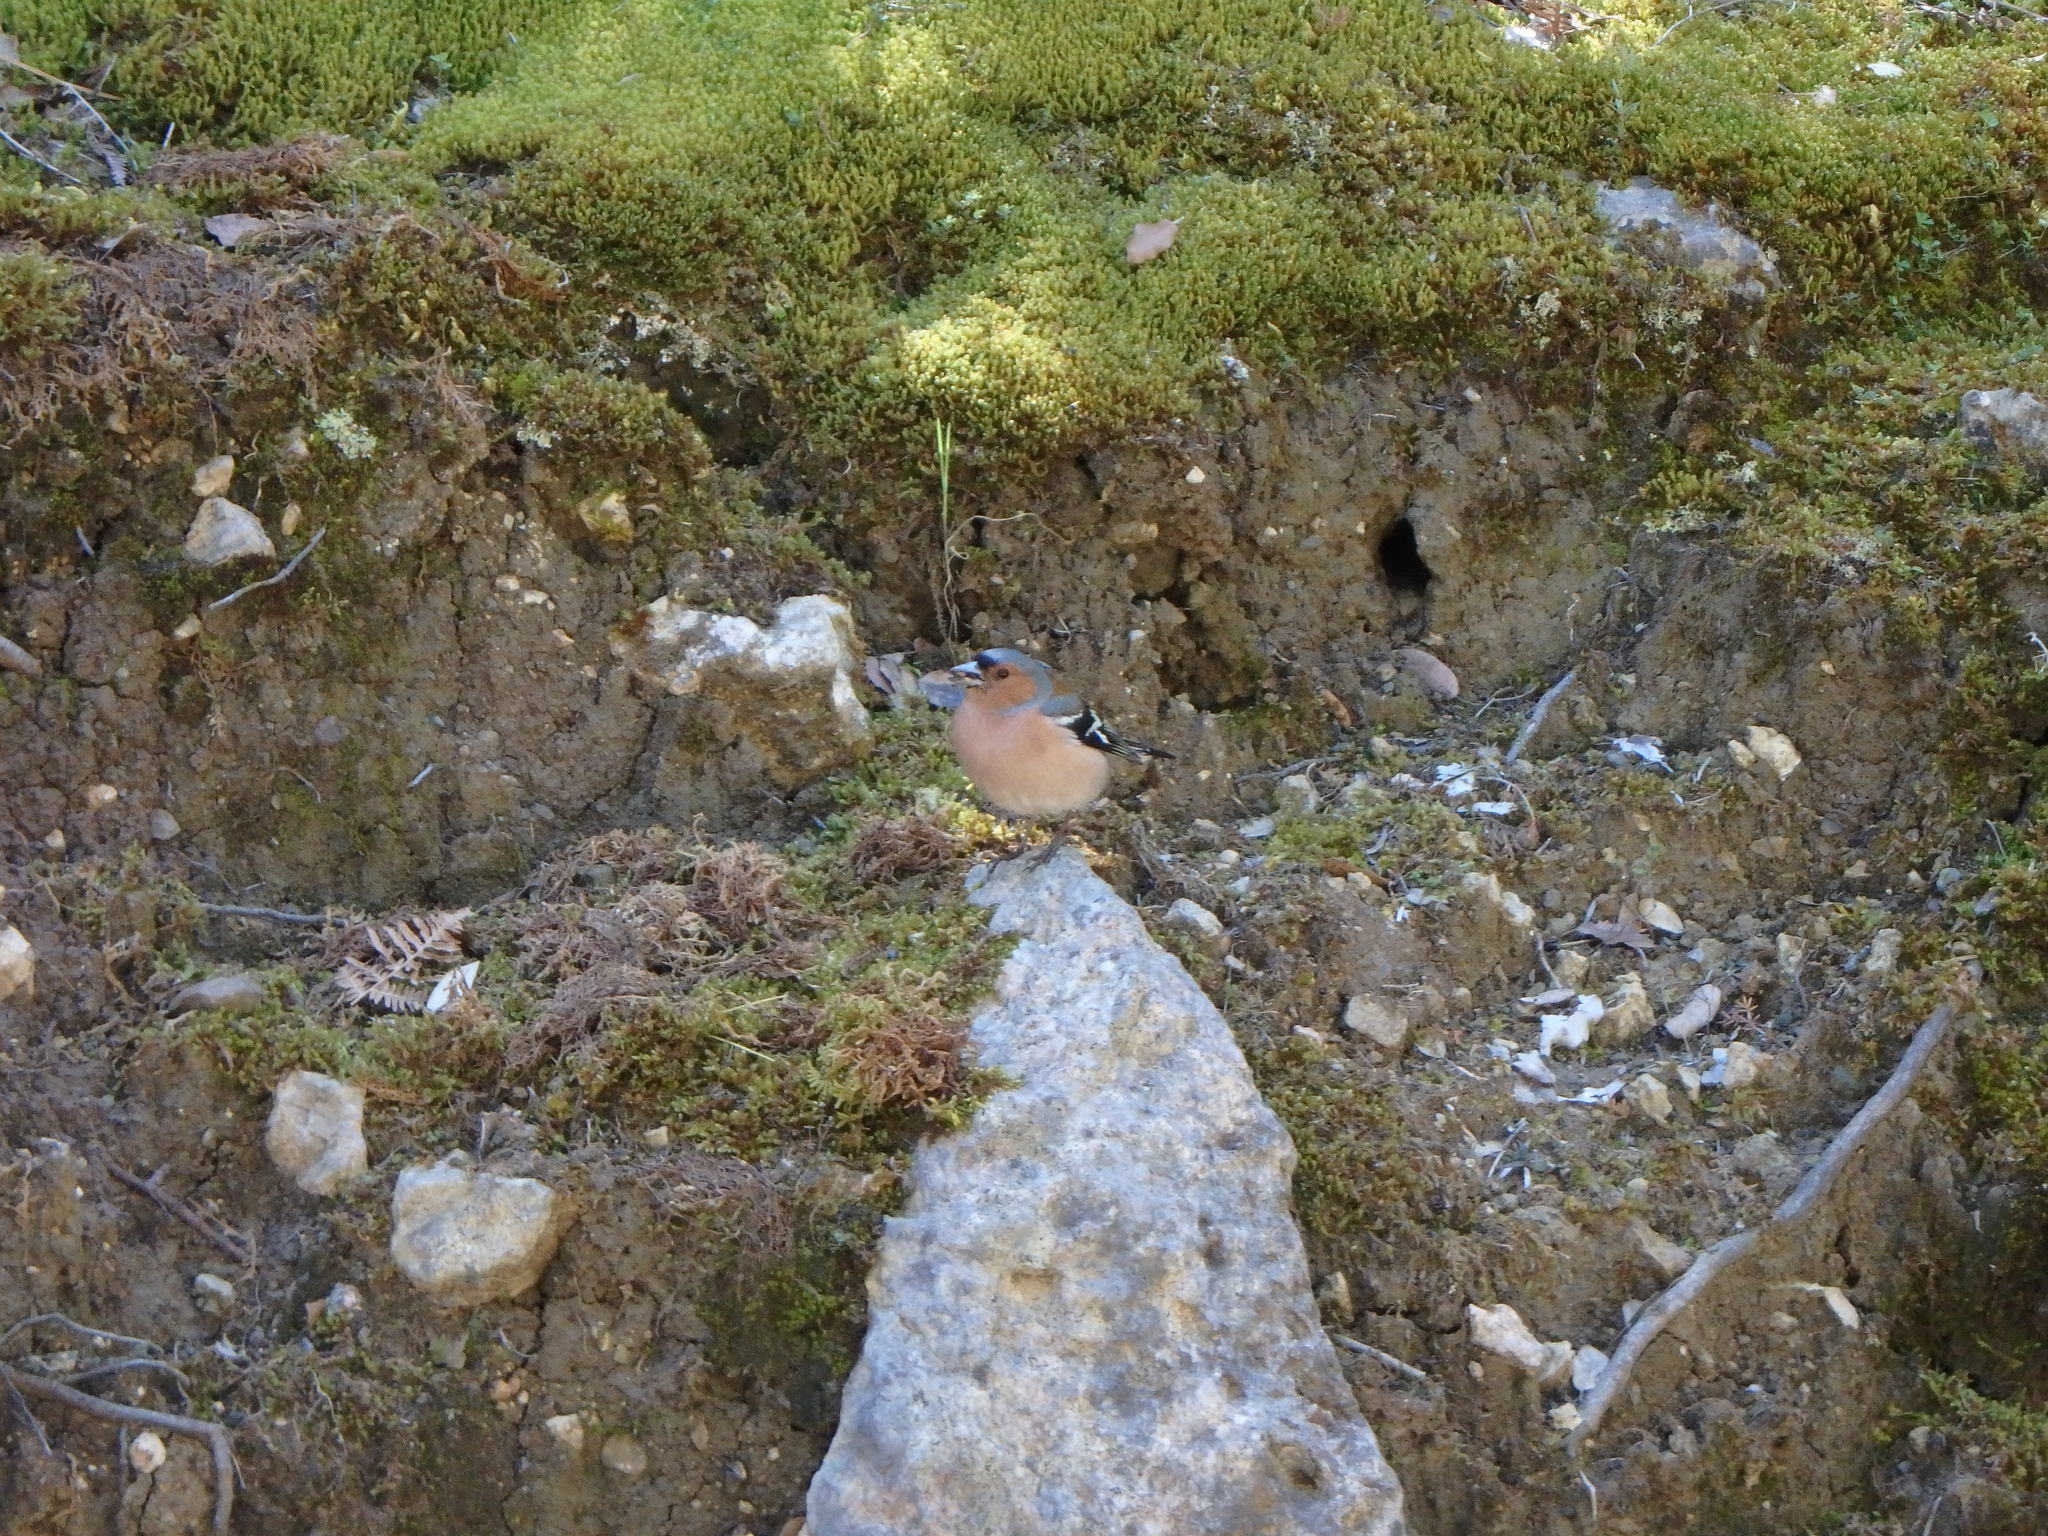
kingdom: Animalia
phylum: Chordata
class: Aves
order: Passeriformes
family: Fringillidae
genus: Fringilla
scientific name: Fringilla coelebs
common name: Common chaffinch
